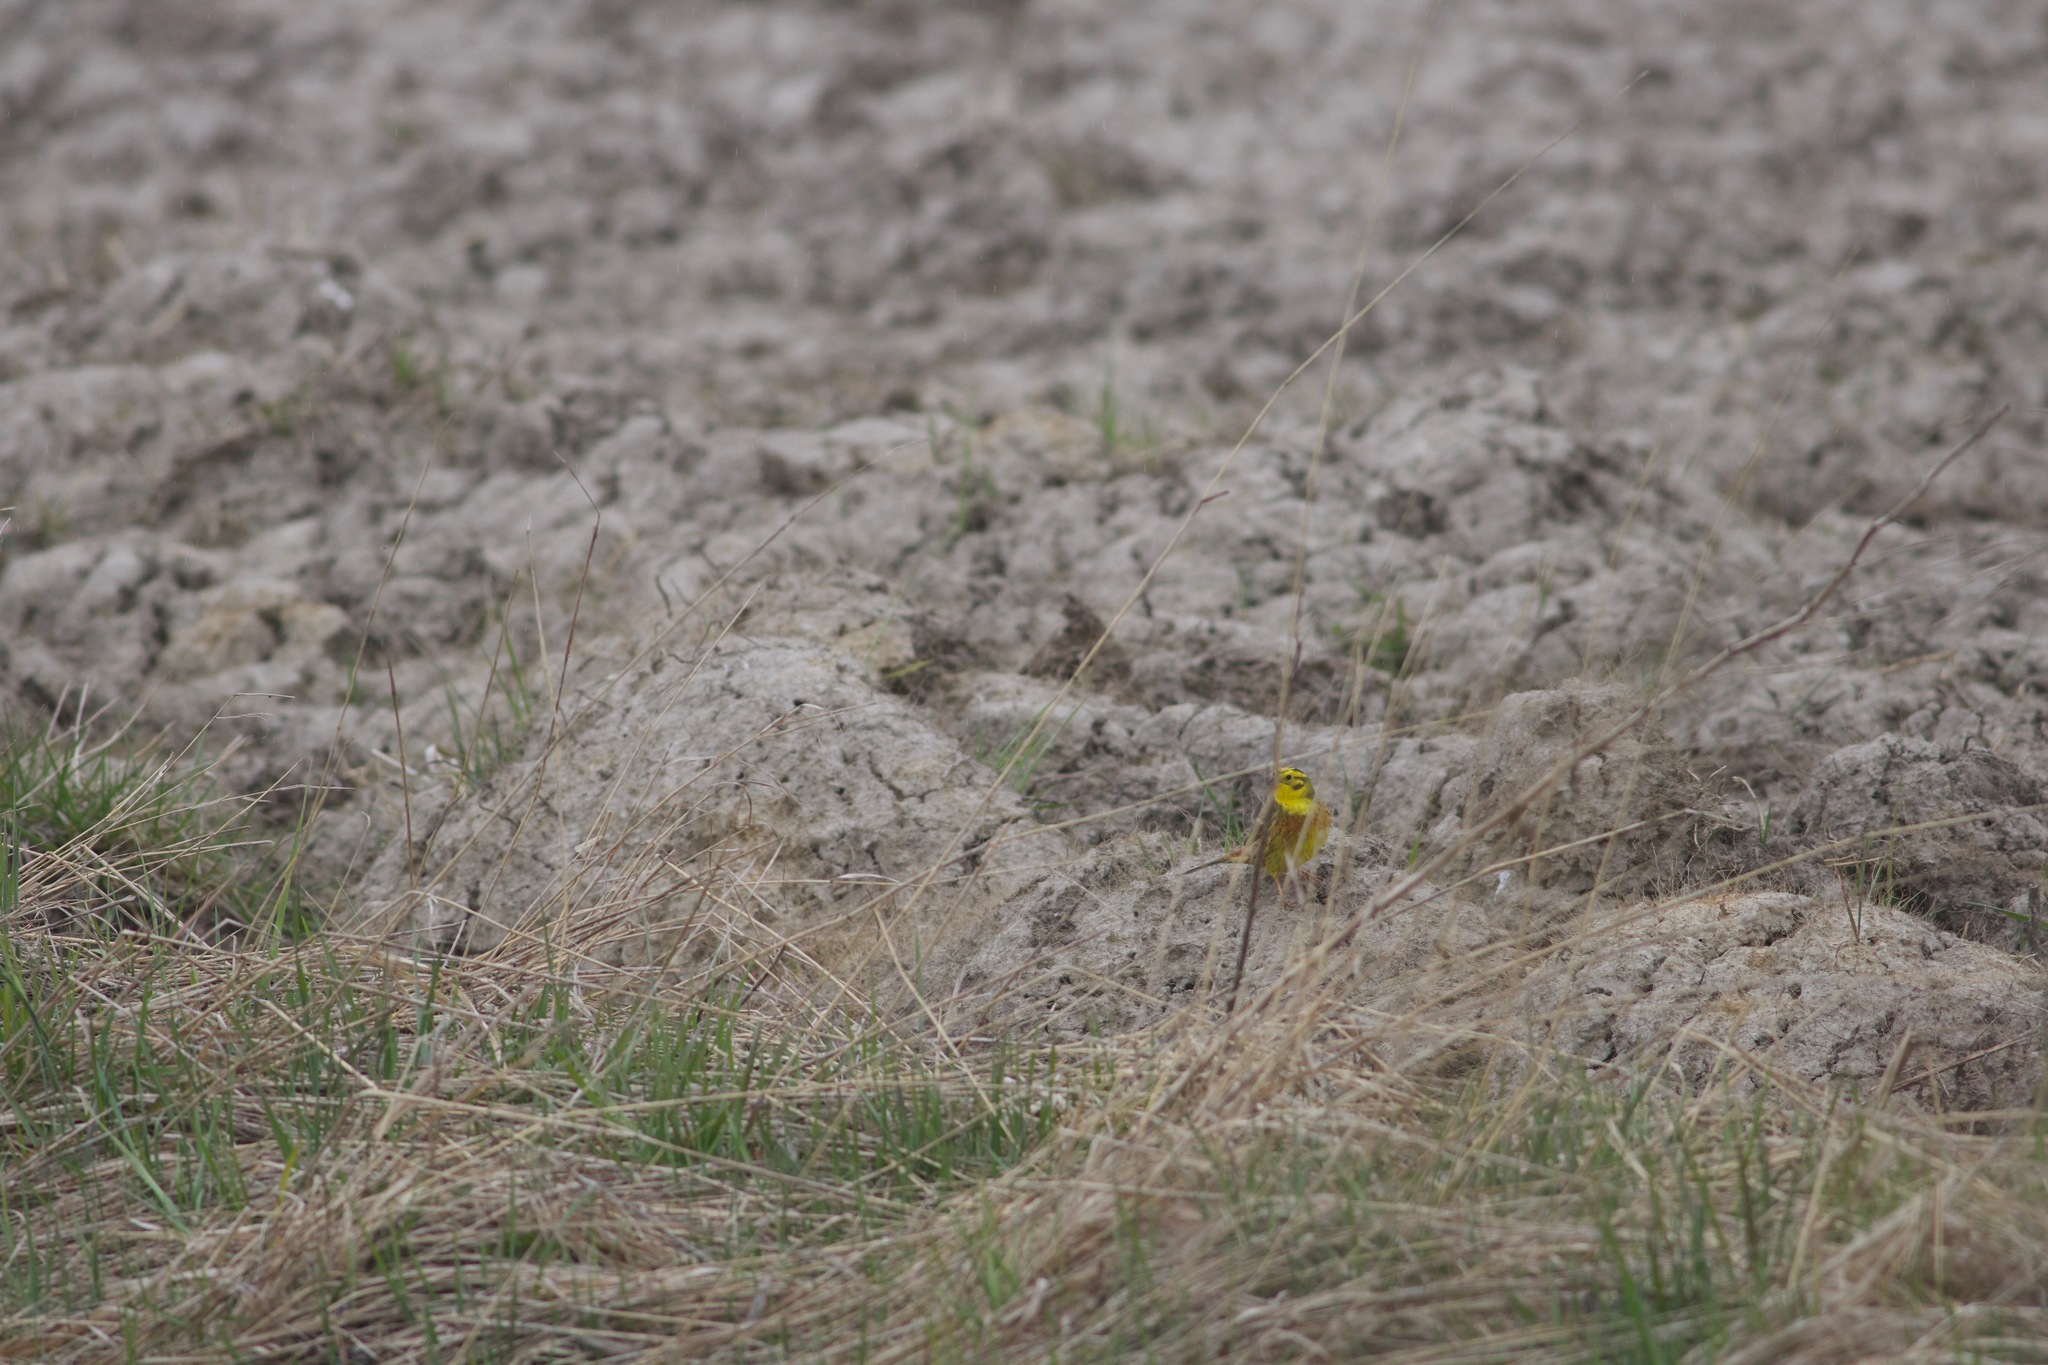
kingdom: Animalia
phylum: Chordata
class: Aves
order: Passeriformes
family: Emberizidae
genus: Emberiza
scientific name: Emberiza citrinella
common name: Yellowhammer
